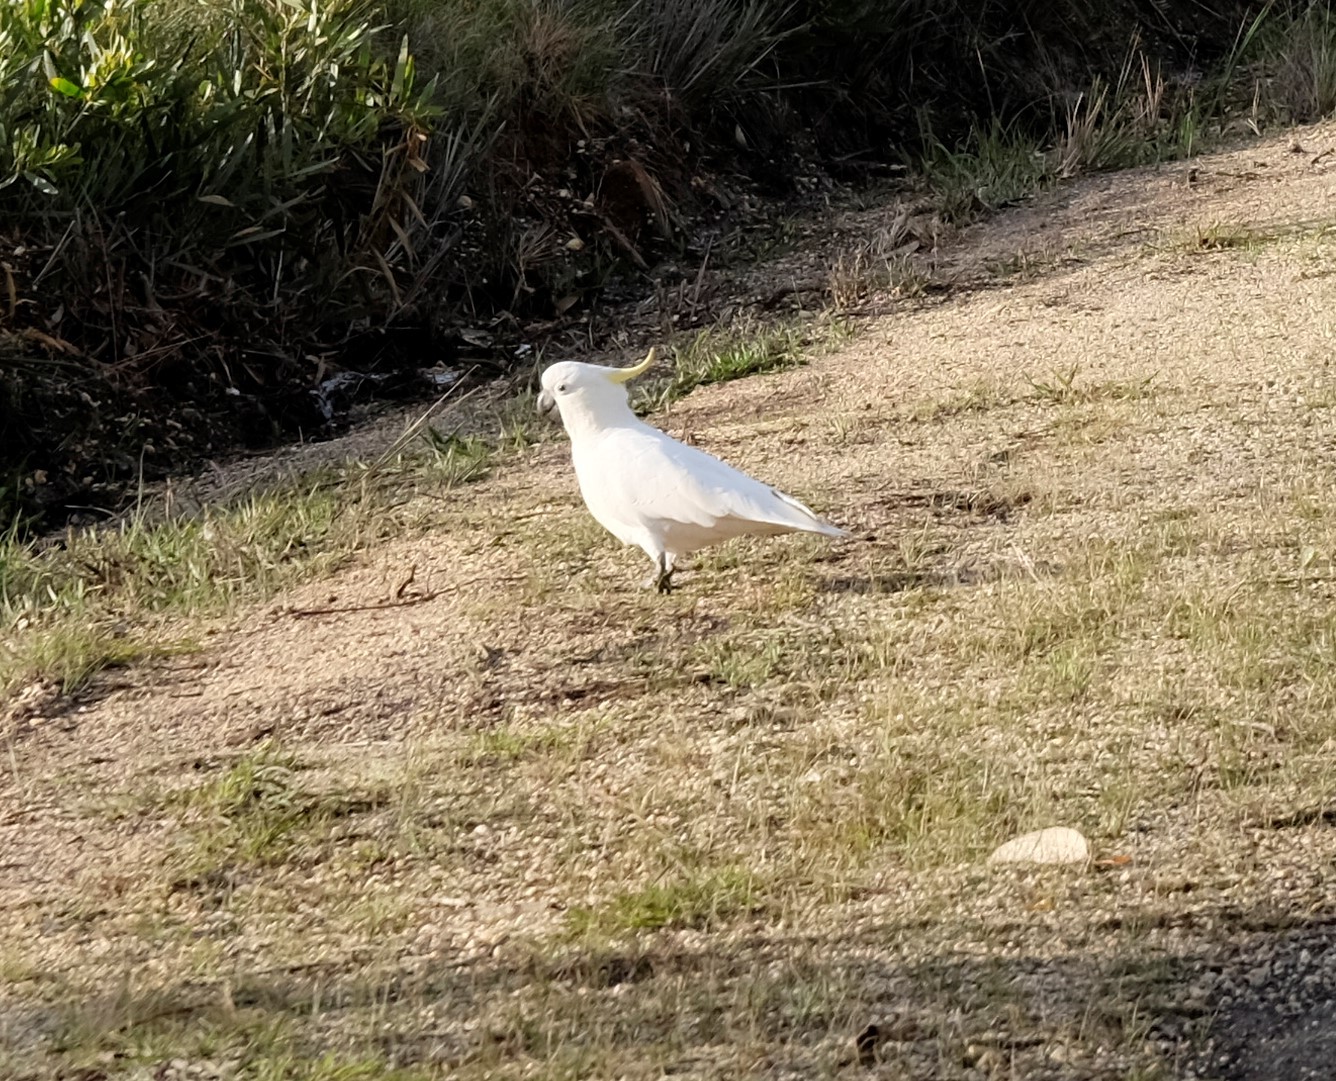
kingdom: Animalia
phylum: Chordata
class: Aves
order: Psittaciformes
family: Psittacidae
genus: Cacatua
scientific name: Cacatua galerita
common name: Sulphur-crested cockatoo
